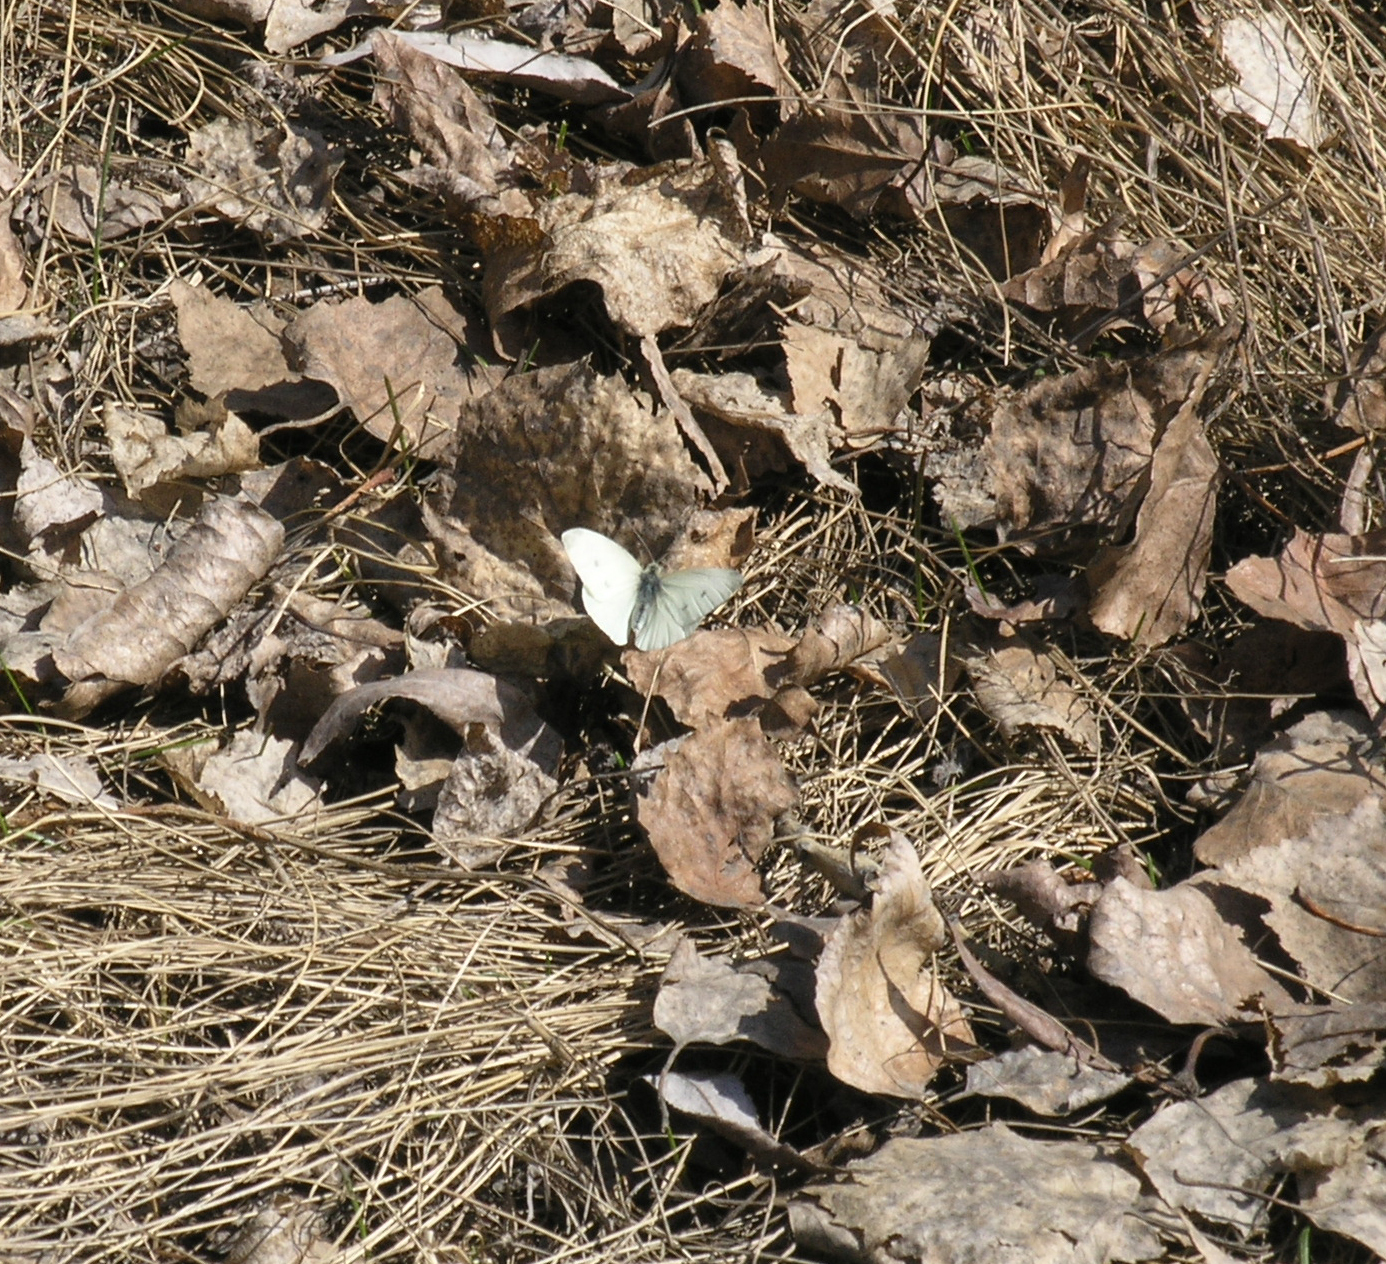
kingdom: Animalia
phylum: Arthropoda
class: Insecta
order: Lepidoptera
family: Pieridae
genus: Pieris
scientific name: Pieris rapae
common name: Small white
